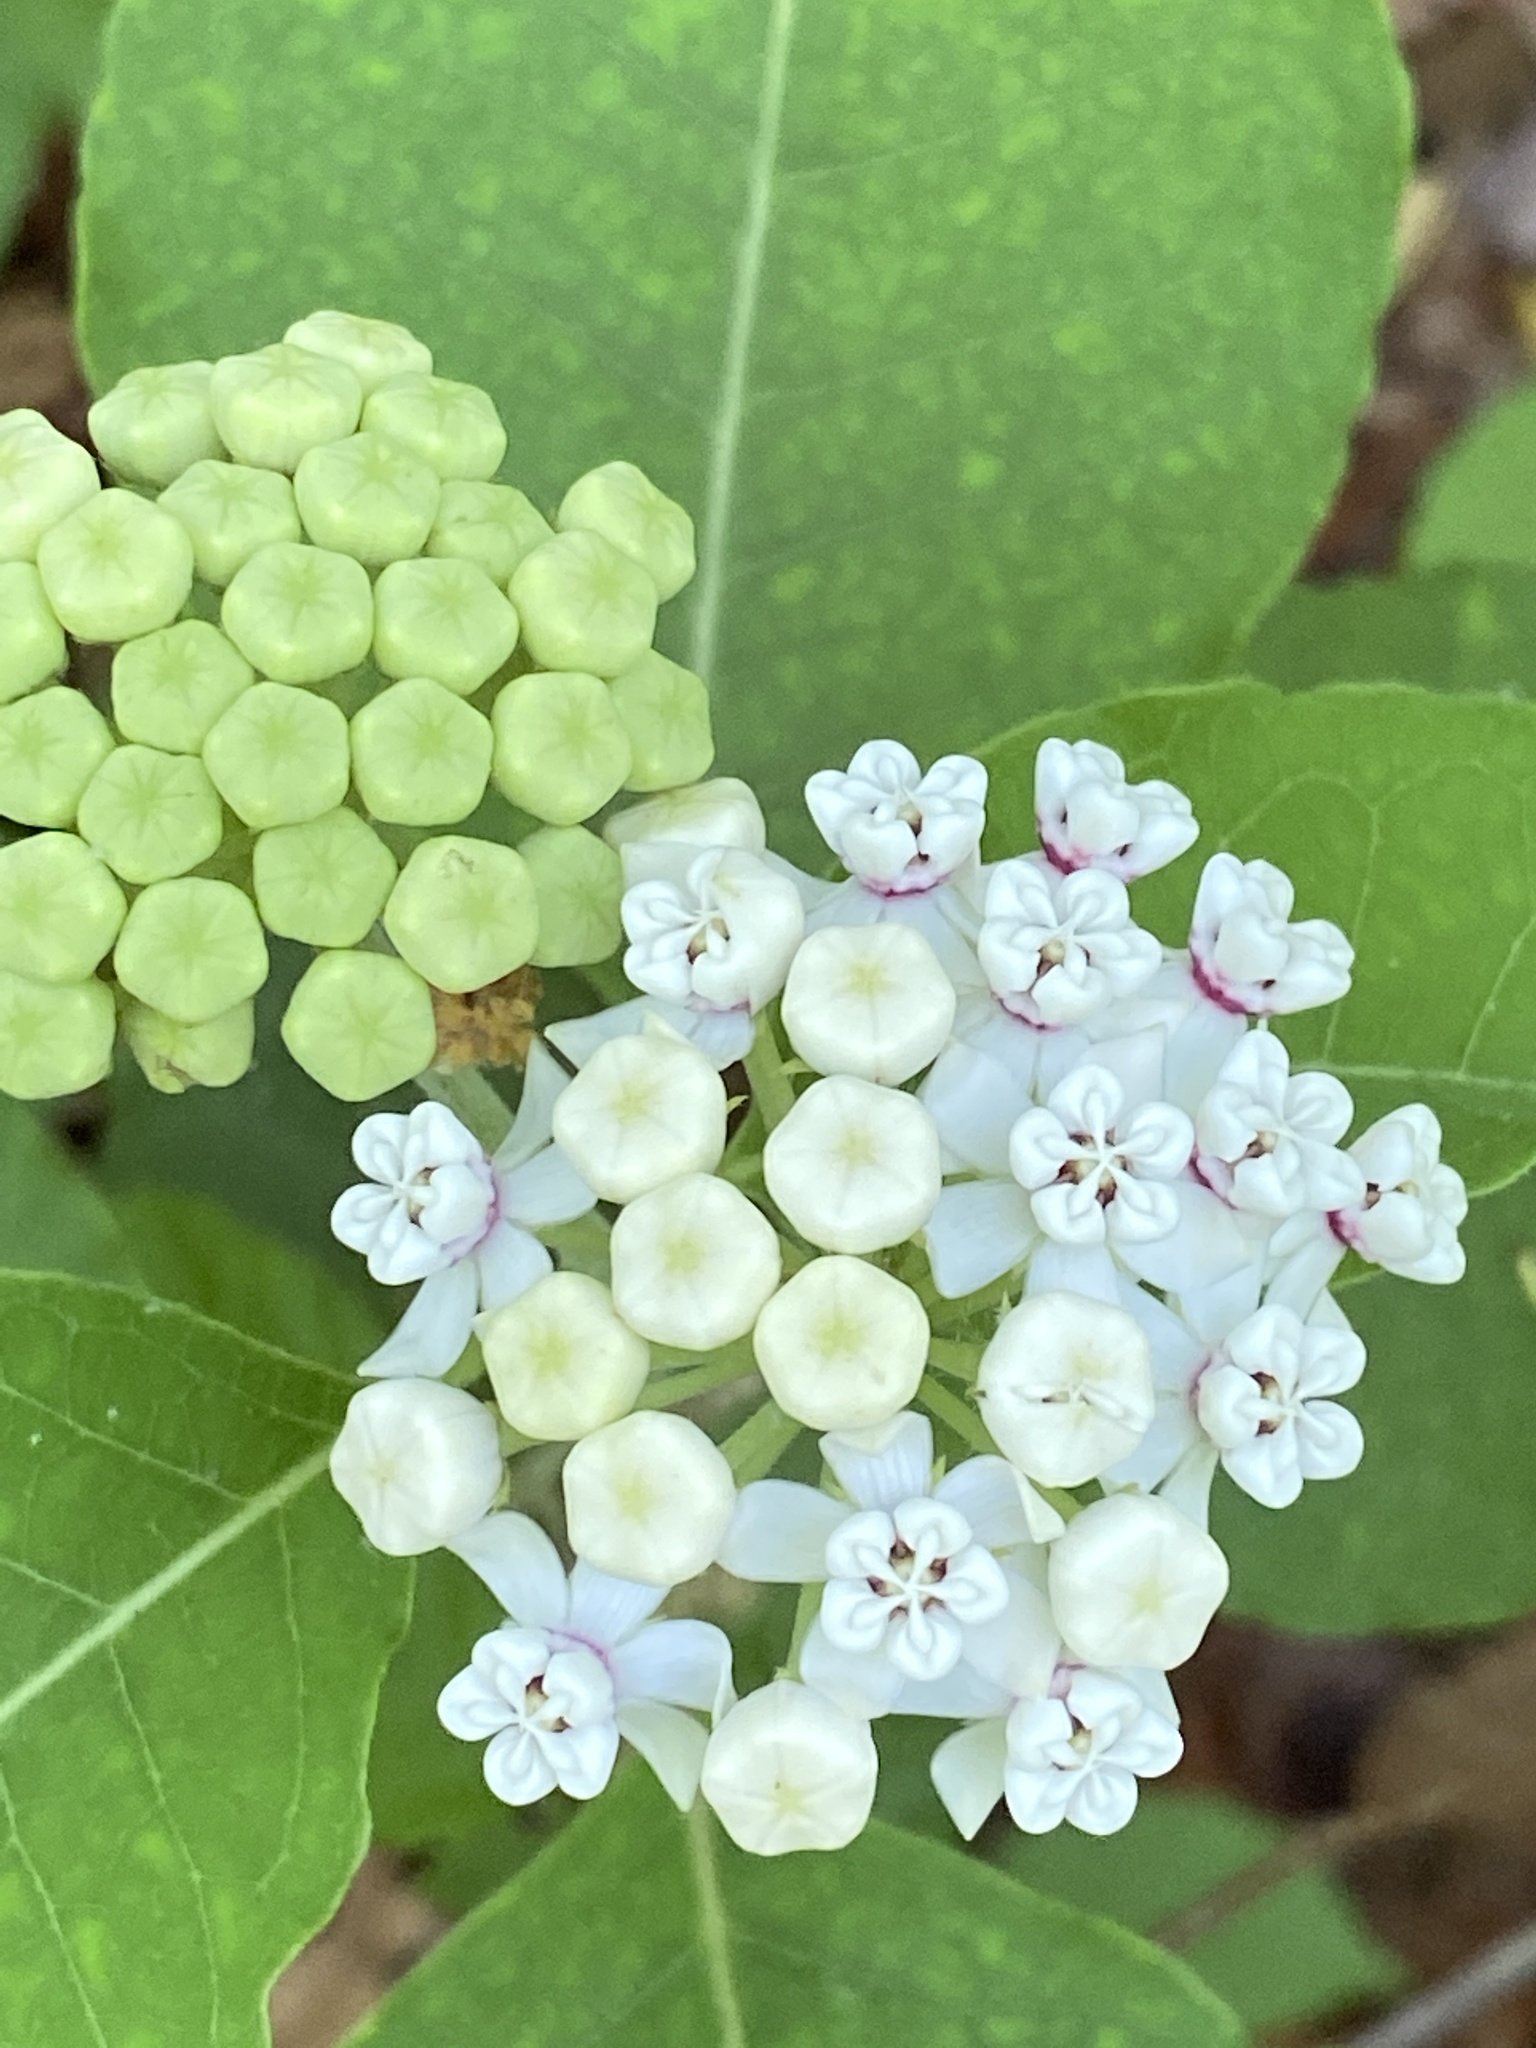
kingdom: Plantae
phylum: Tracheophyta
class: Magnoliopsida
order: Gentianales
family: Apocynaceae
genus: Asclepias
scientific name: Asclepias variegata
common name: Variegated milkweed
